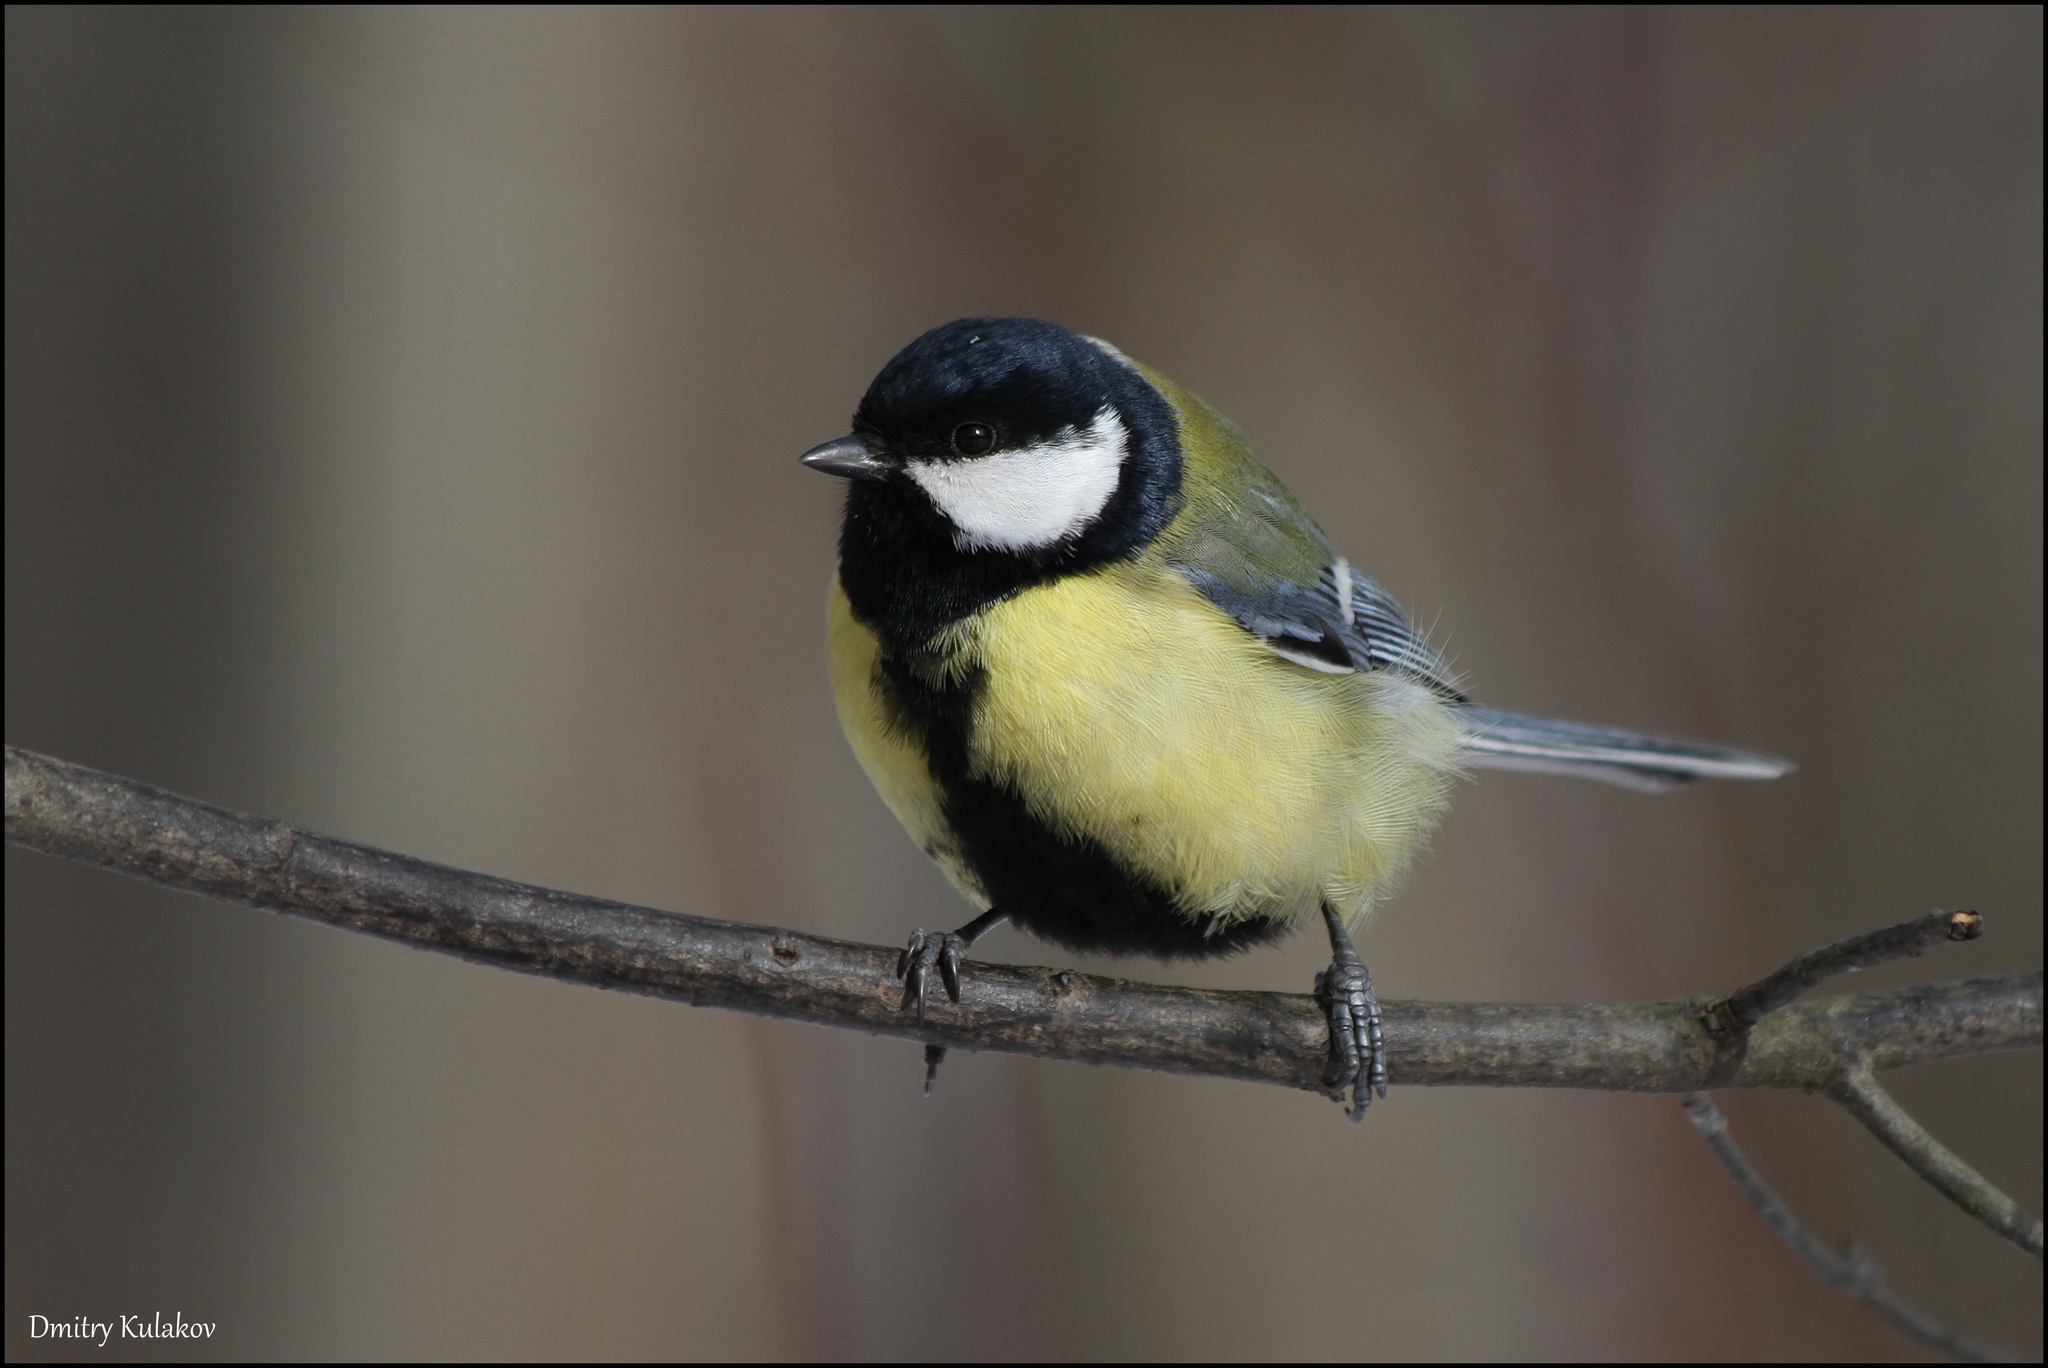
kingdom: Animalia
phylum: Chordata
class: Aves
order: Passeriformes
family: Paridae
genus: Parus
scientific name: Parus major
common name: Great tit
